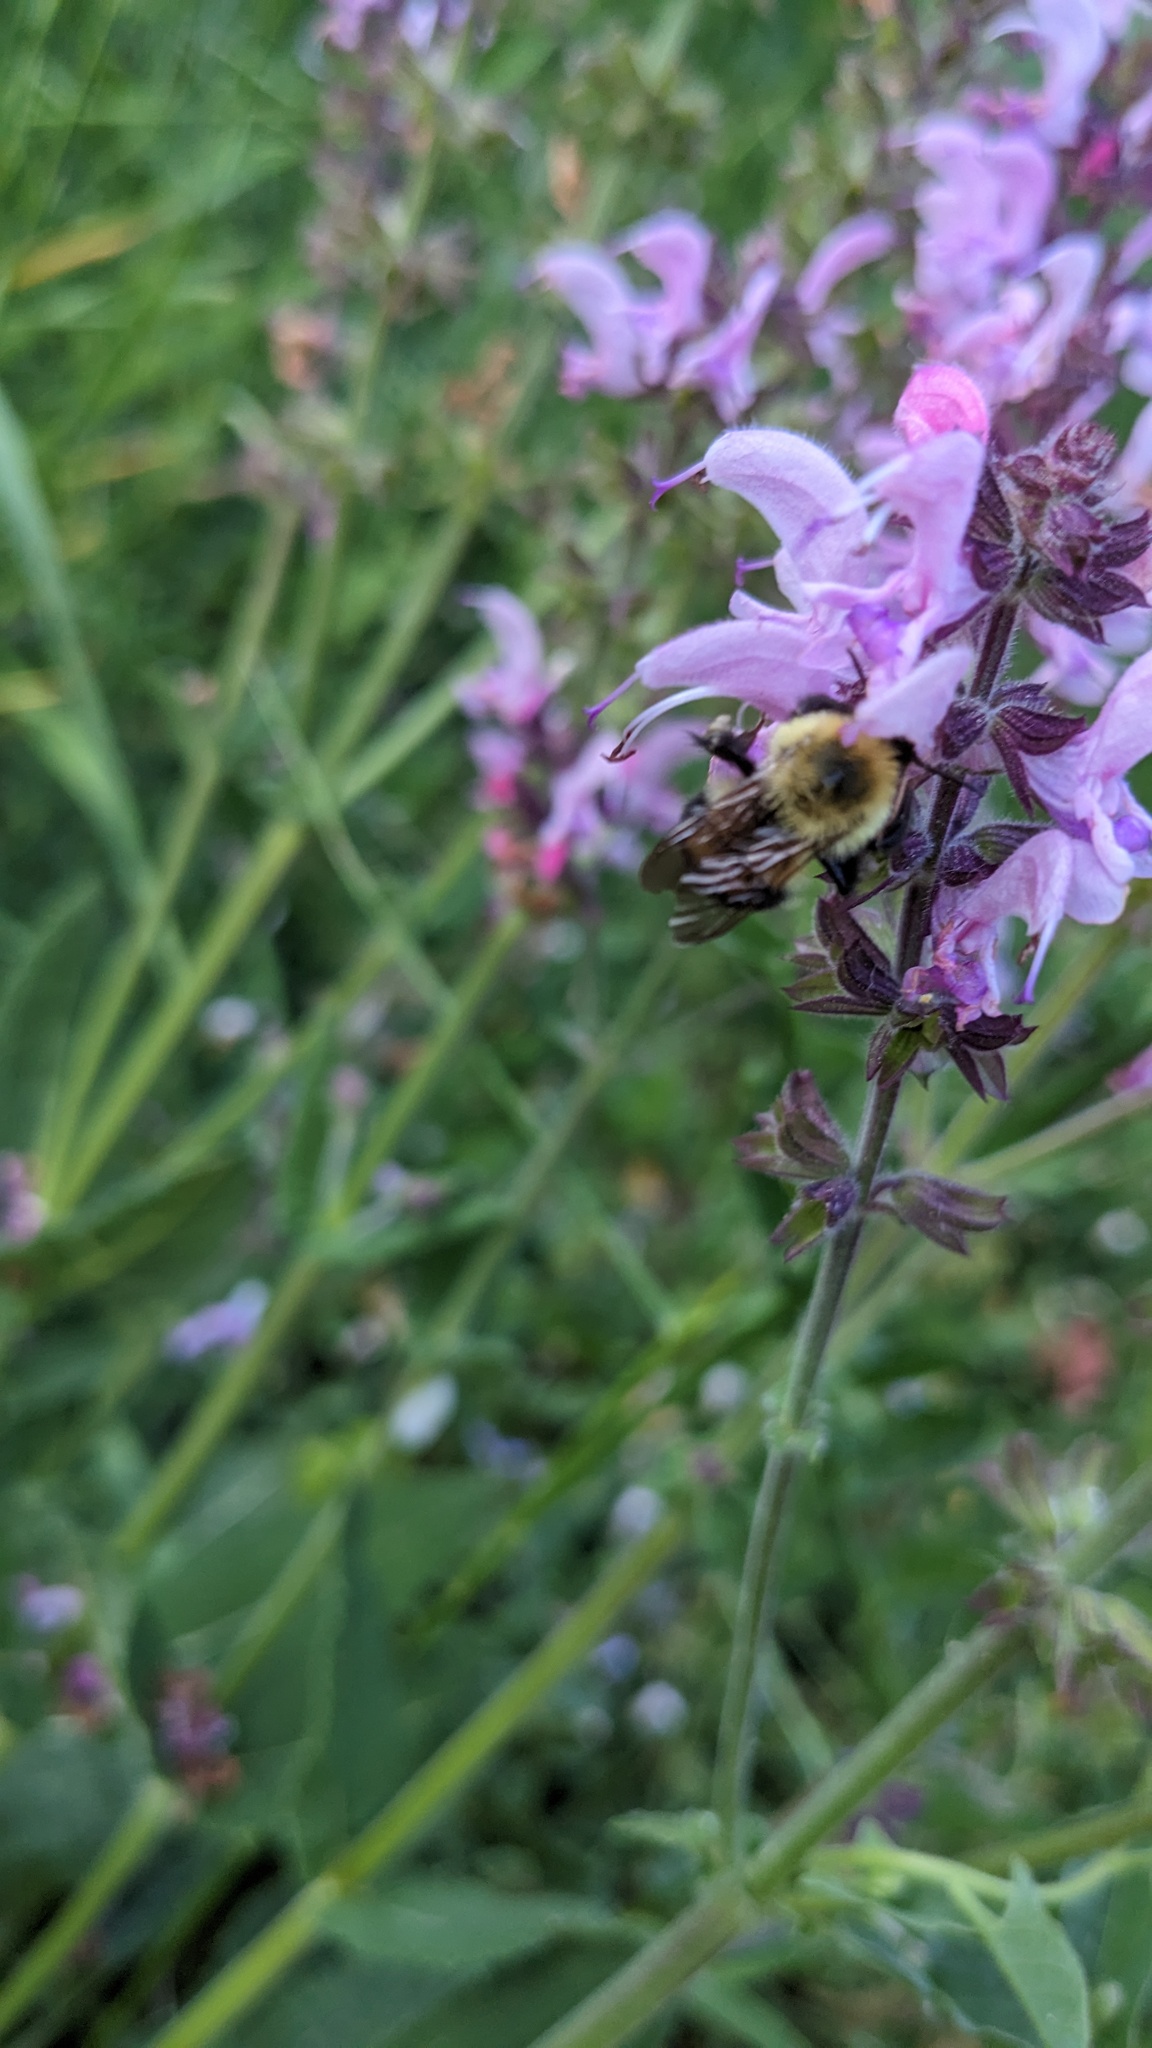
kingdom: Animalia
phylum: Arthropoda
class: Insecta
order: Hymenoptera
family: Apidae
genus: Bombus
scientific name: Bombus bimaculatus
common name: Two-spotted bumble bee
